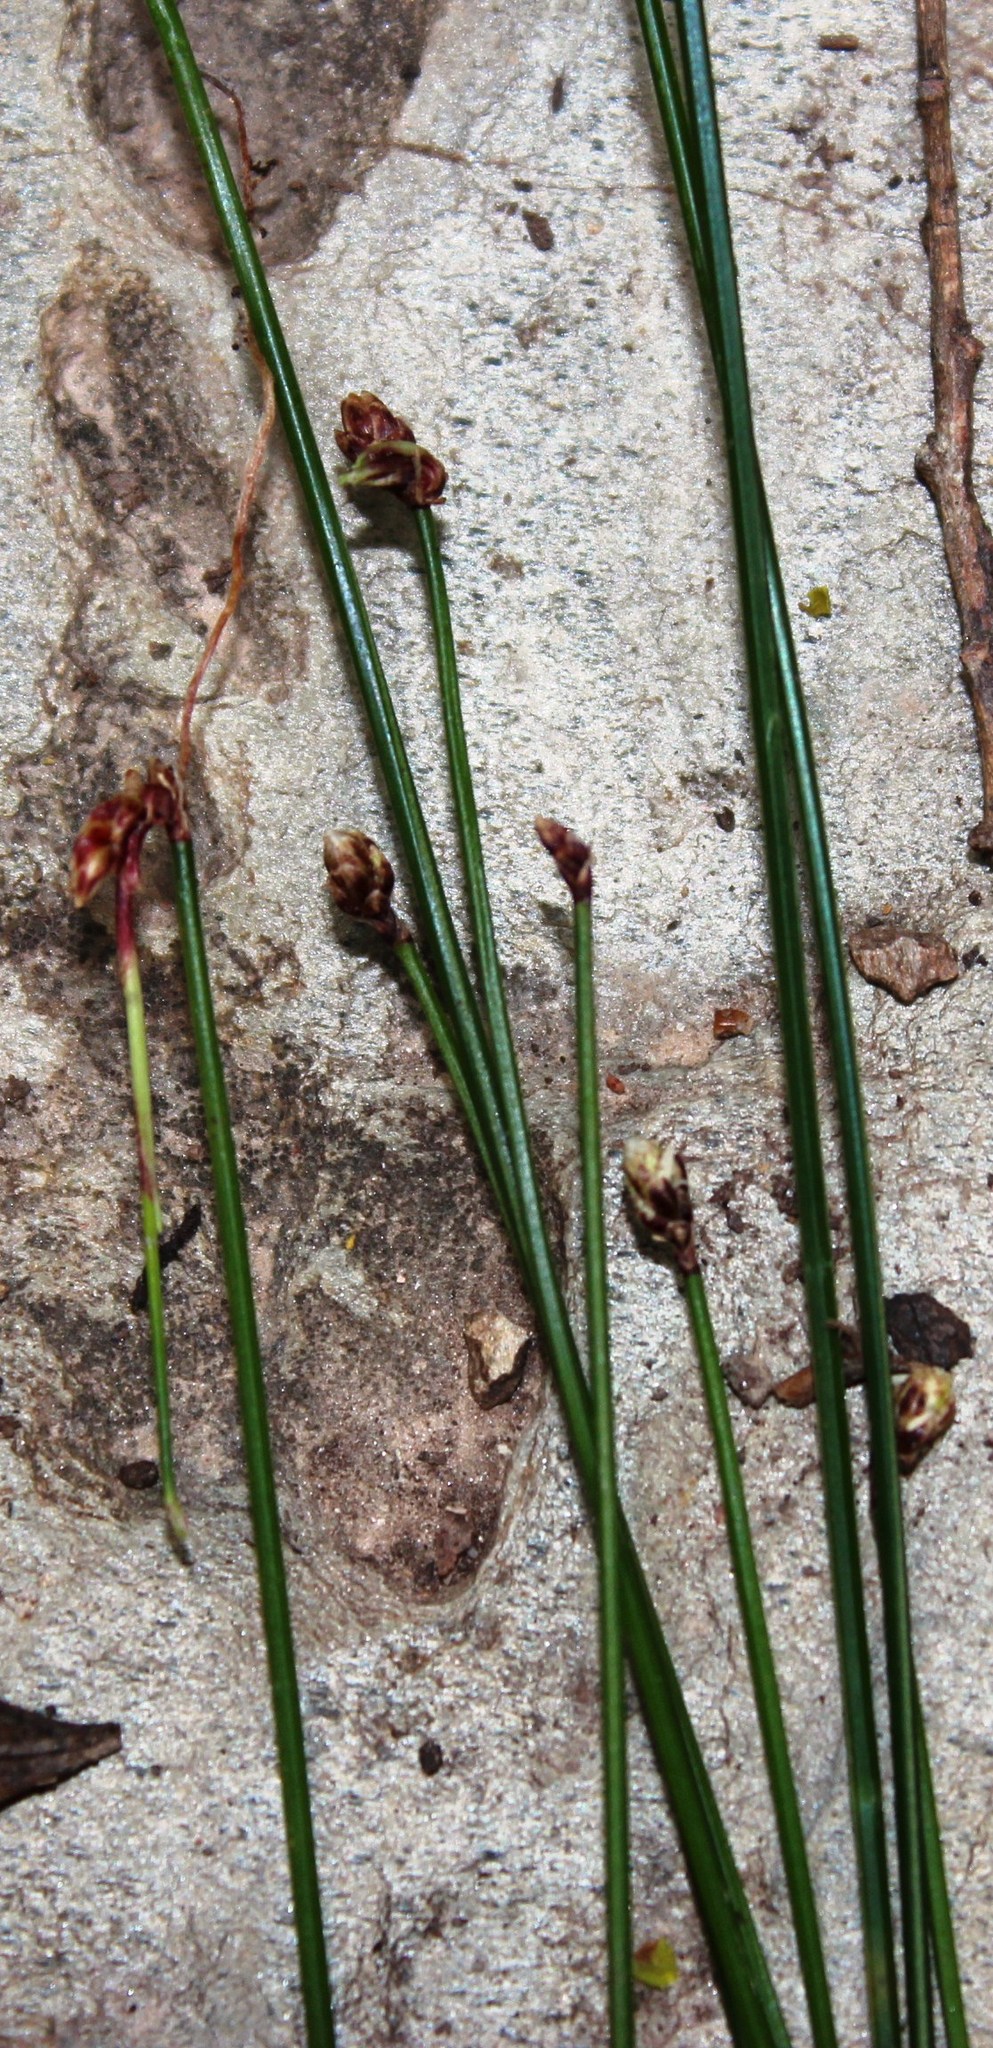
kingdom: Plantae
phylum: Tracheophyta
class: Liliopsida
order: Poales
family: Cyperaceae
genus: Ficinia
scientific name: Ficinia trispicata
